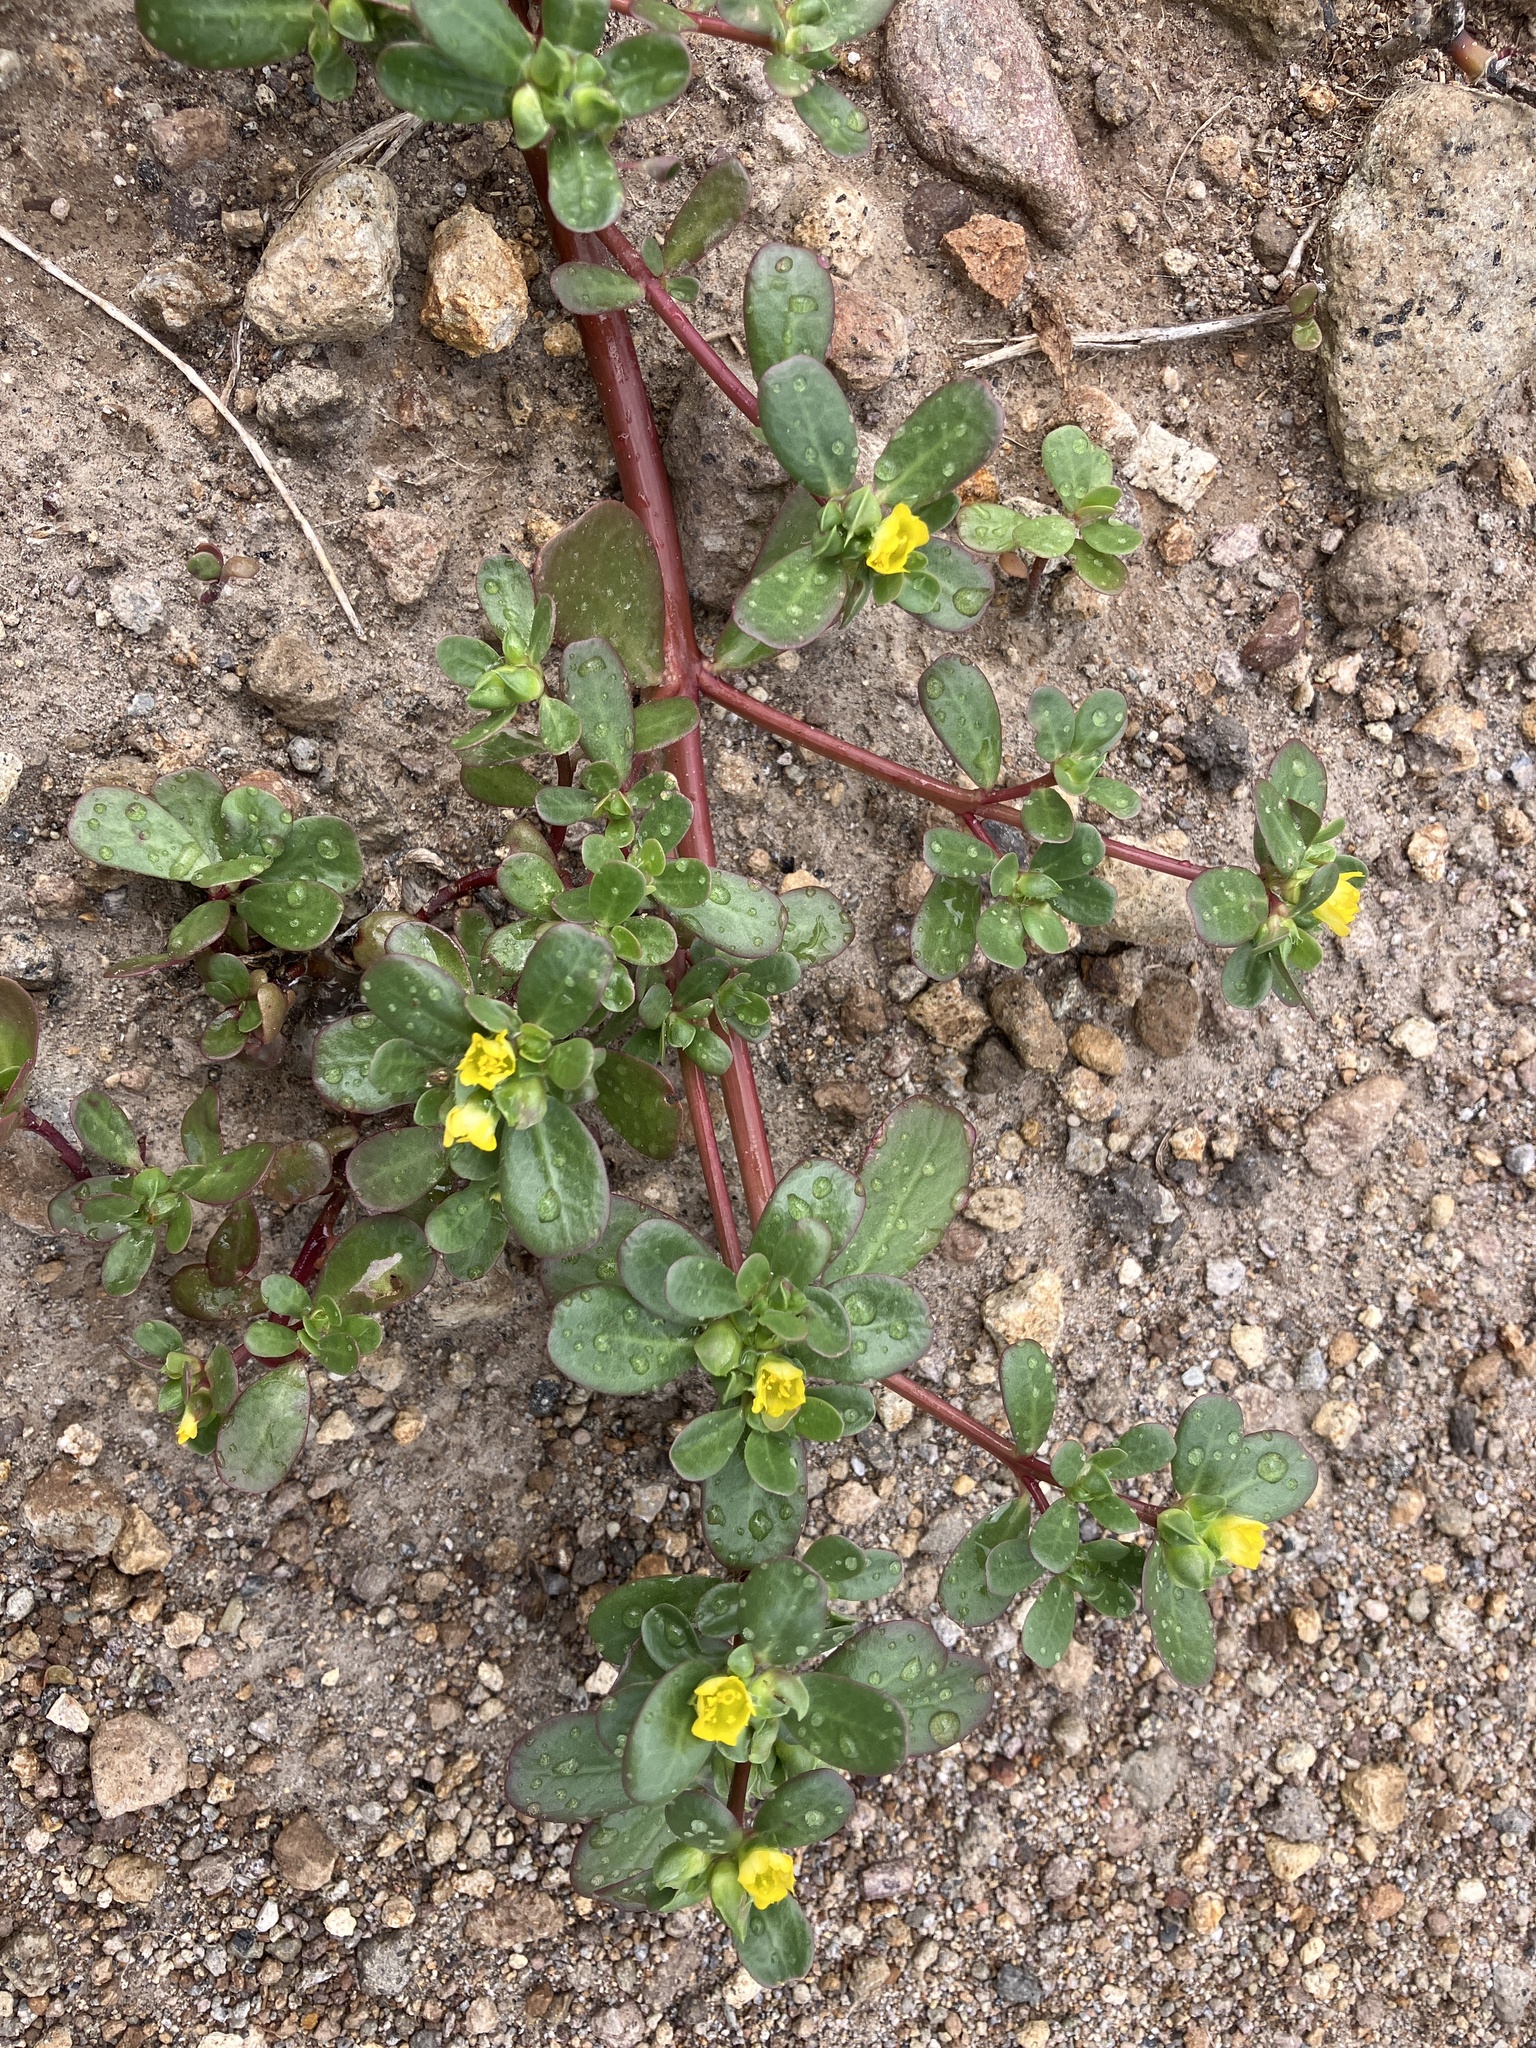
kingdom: Plantae
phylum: Tracheophyta
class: Magnoliopsida
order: Caryophyllales
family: Portulacaceae
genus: Portulaca
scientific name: Portulaca oleracea
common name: Common purslane
